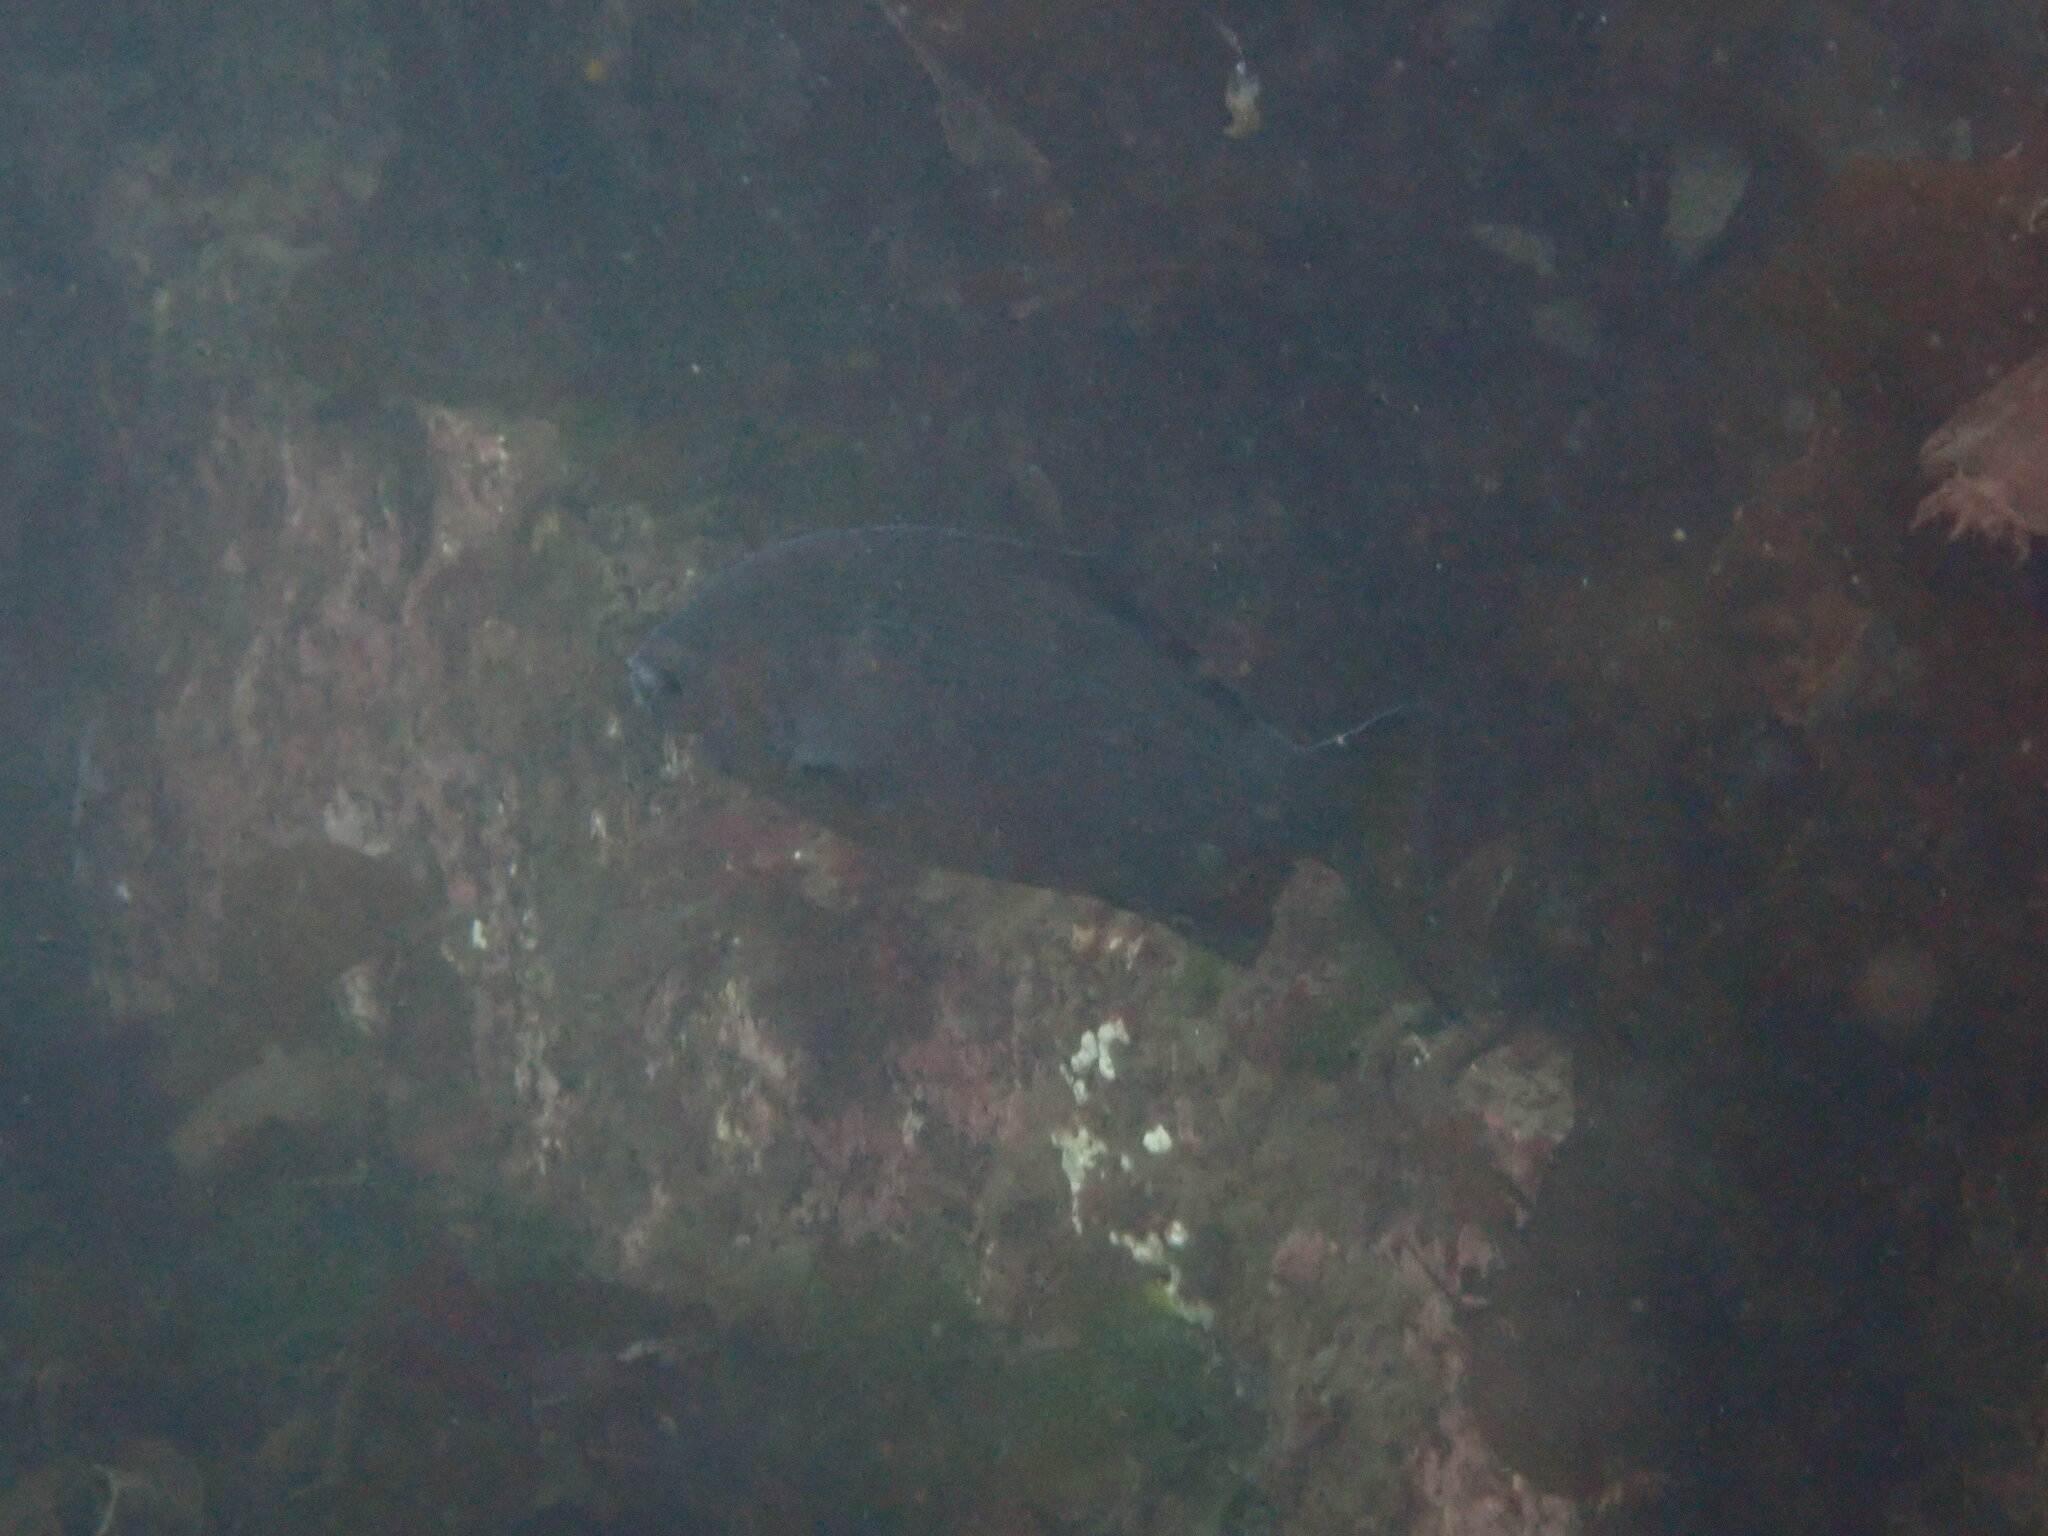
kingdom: Animalia
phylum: Chordata
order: Perciformes
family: Embiotocidae
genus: Embiotoca
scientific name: Embiotoca lateralis
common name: Striped surfperch
